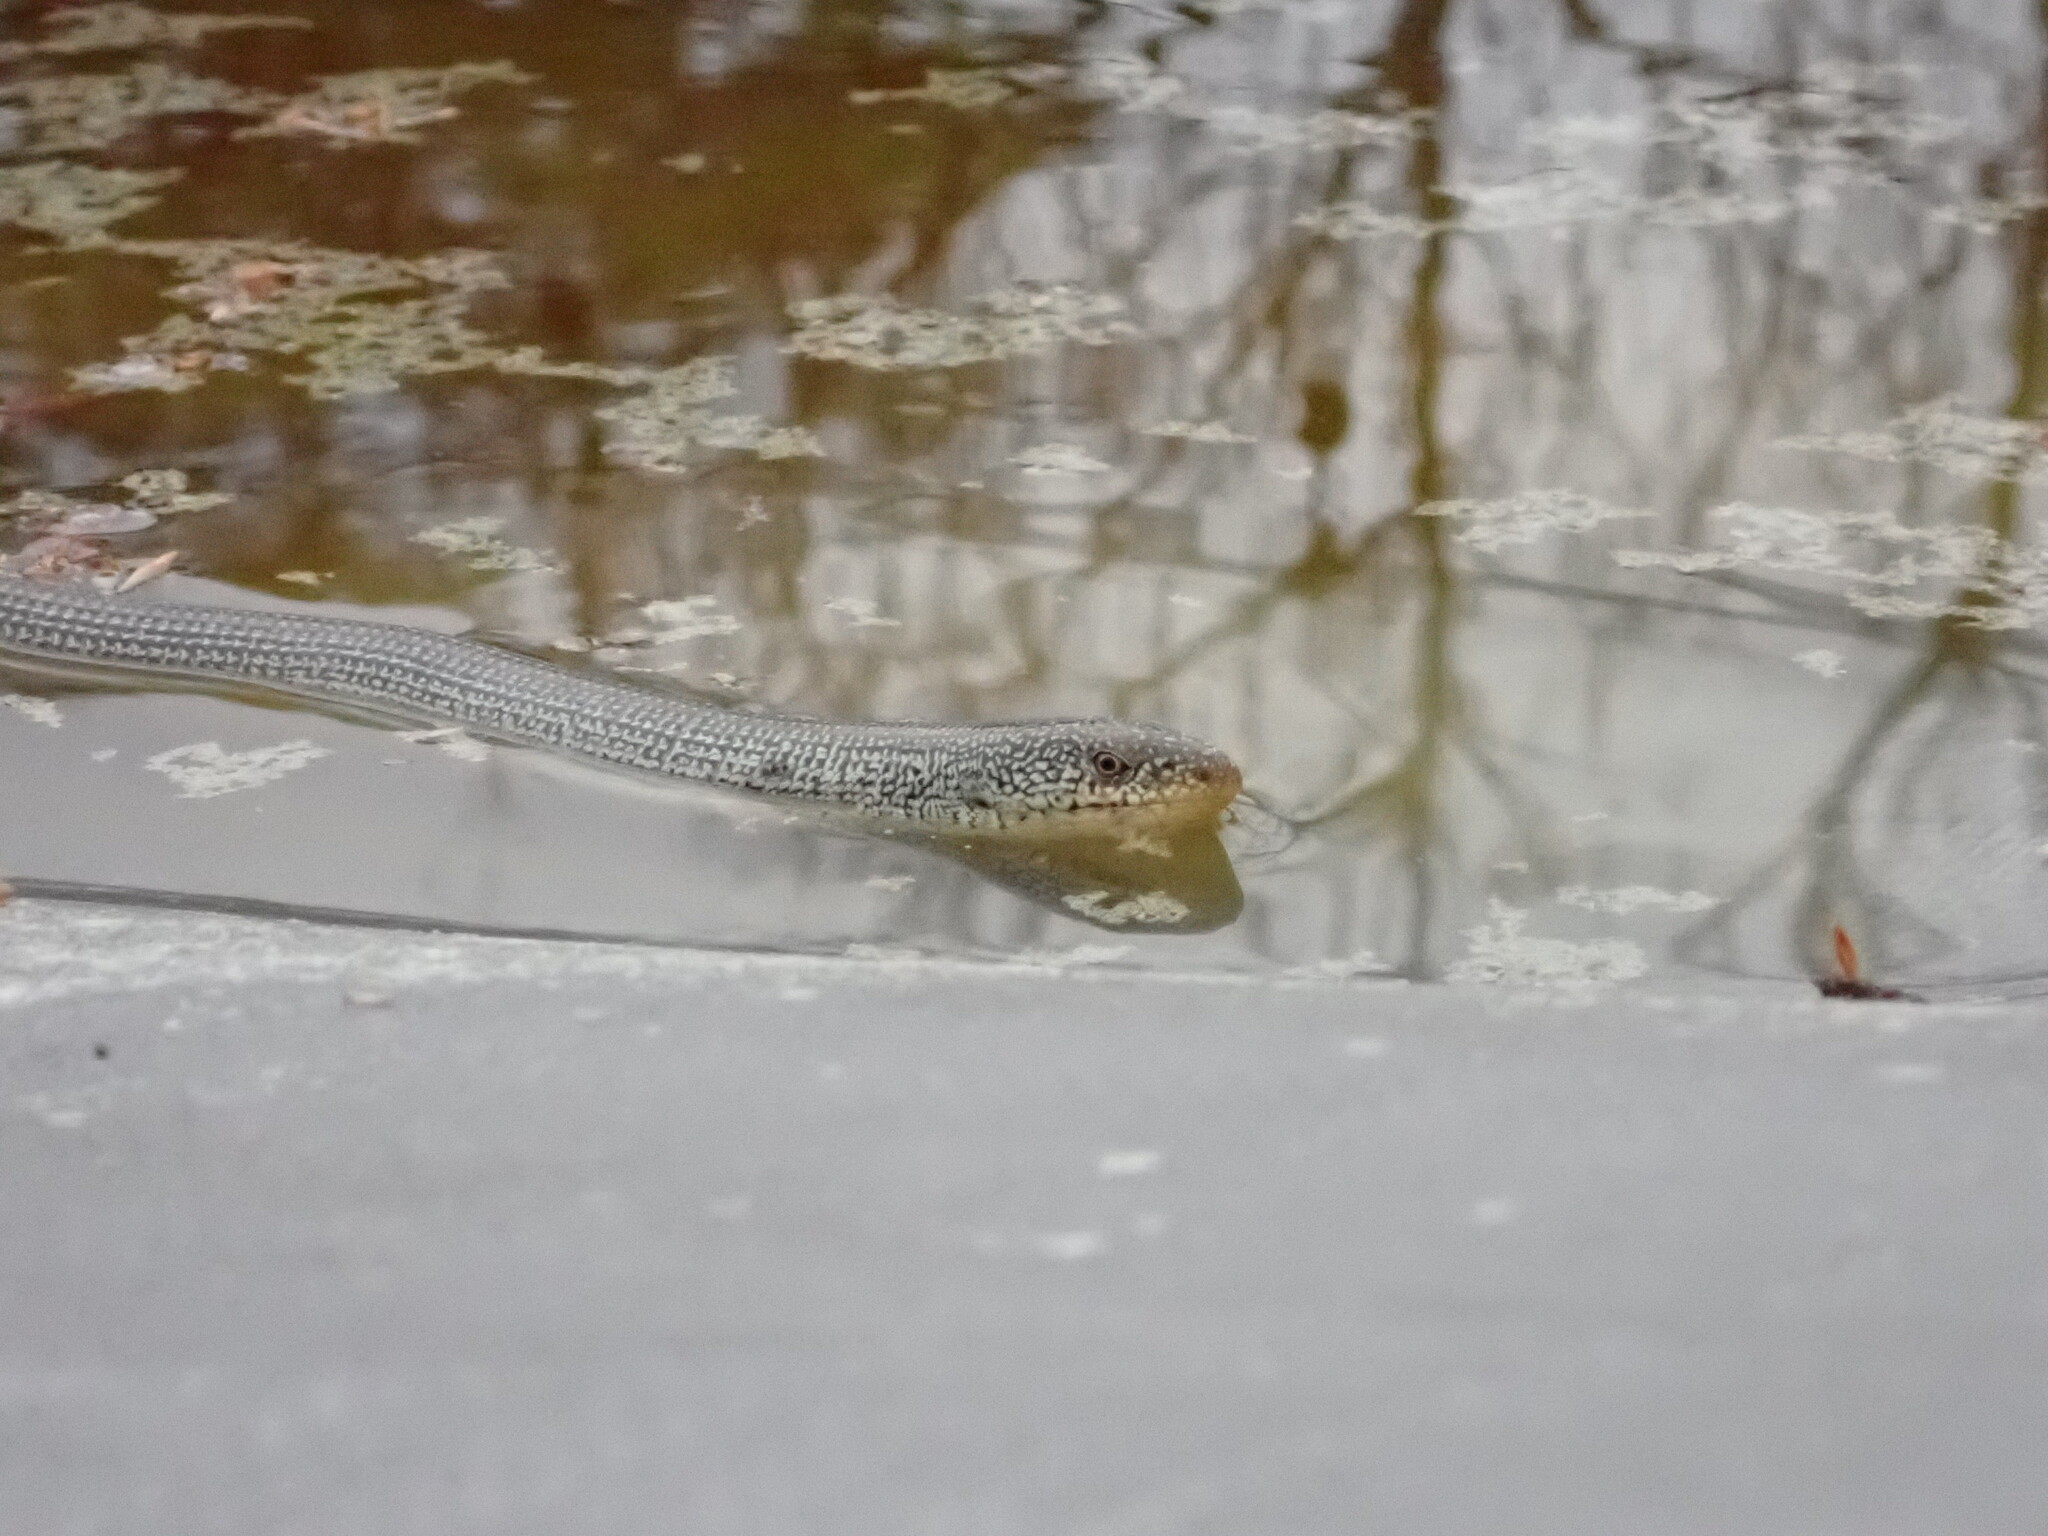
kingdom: Animalia
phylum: Chordata
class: Squamata
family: Anguidae
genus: Ophisaurus
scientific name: Ophisaurus ventralis
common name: Eastern glass lizard
